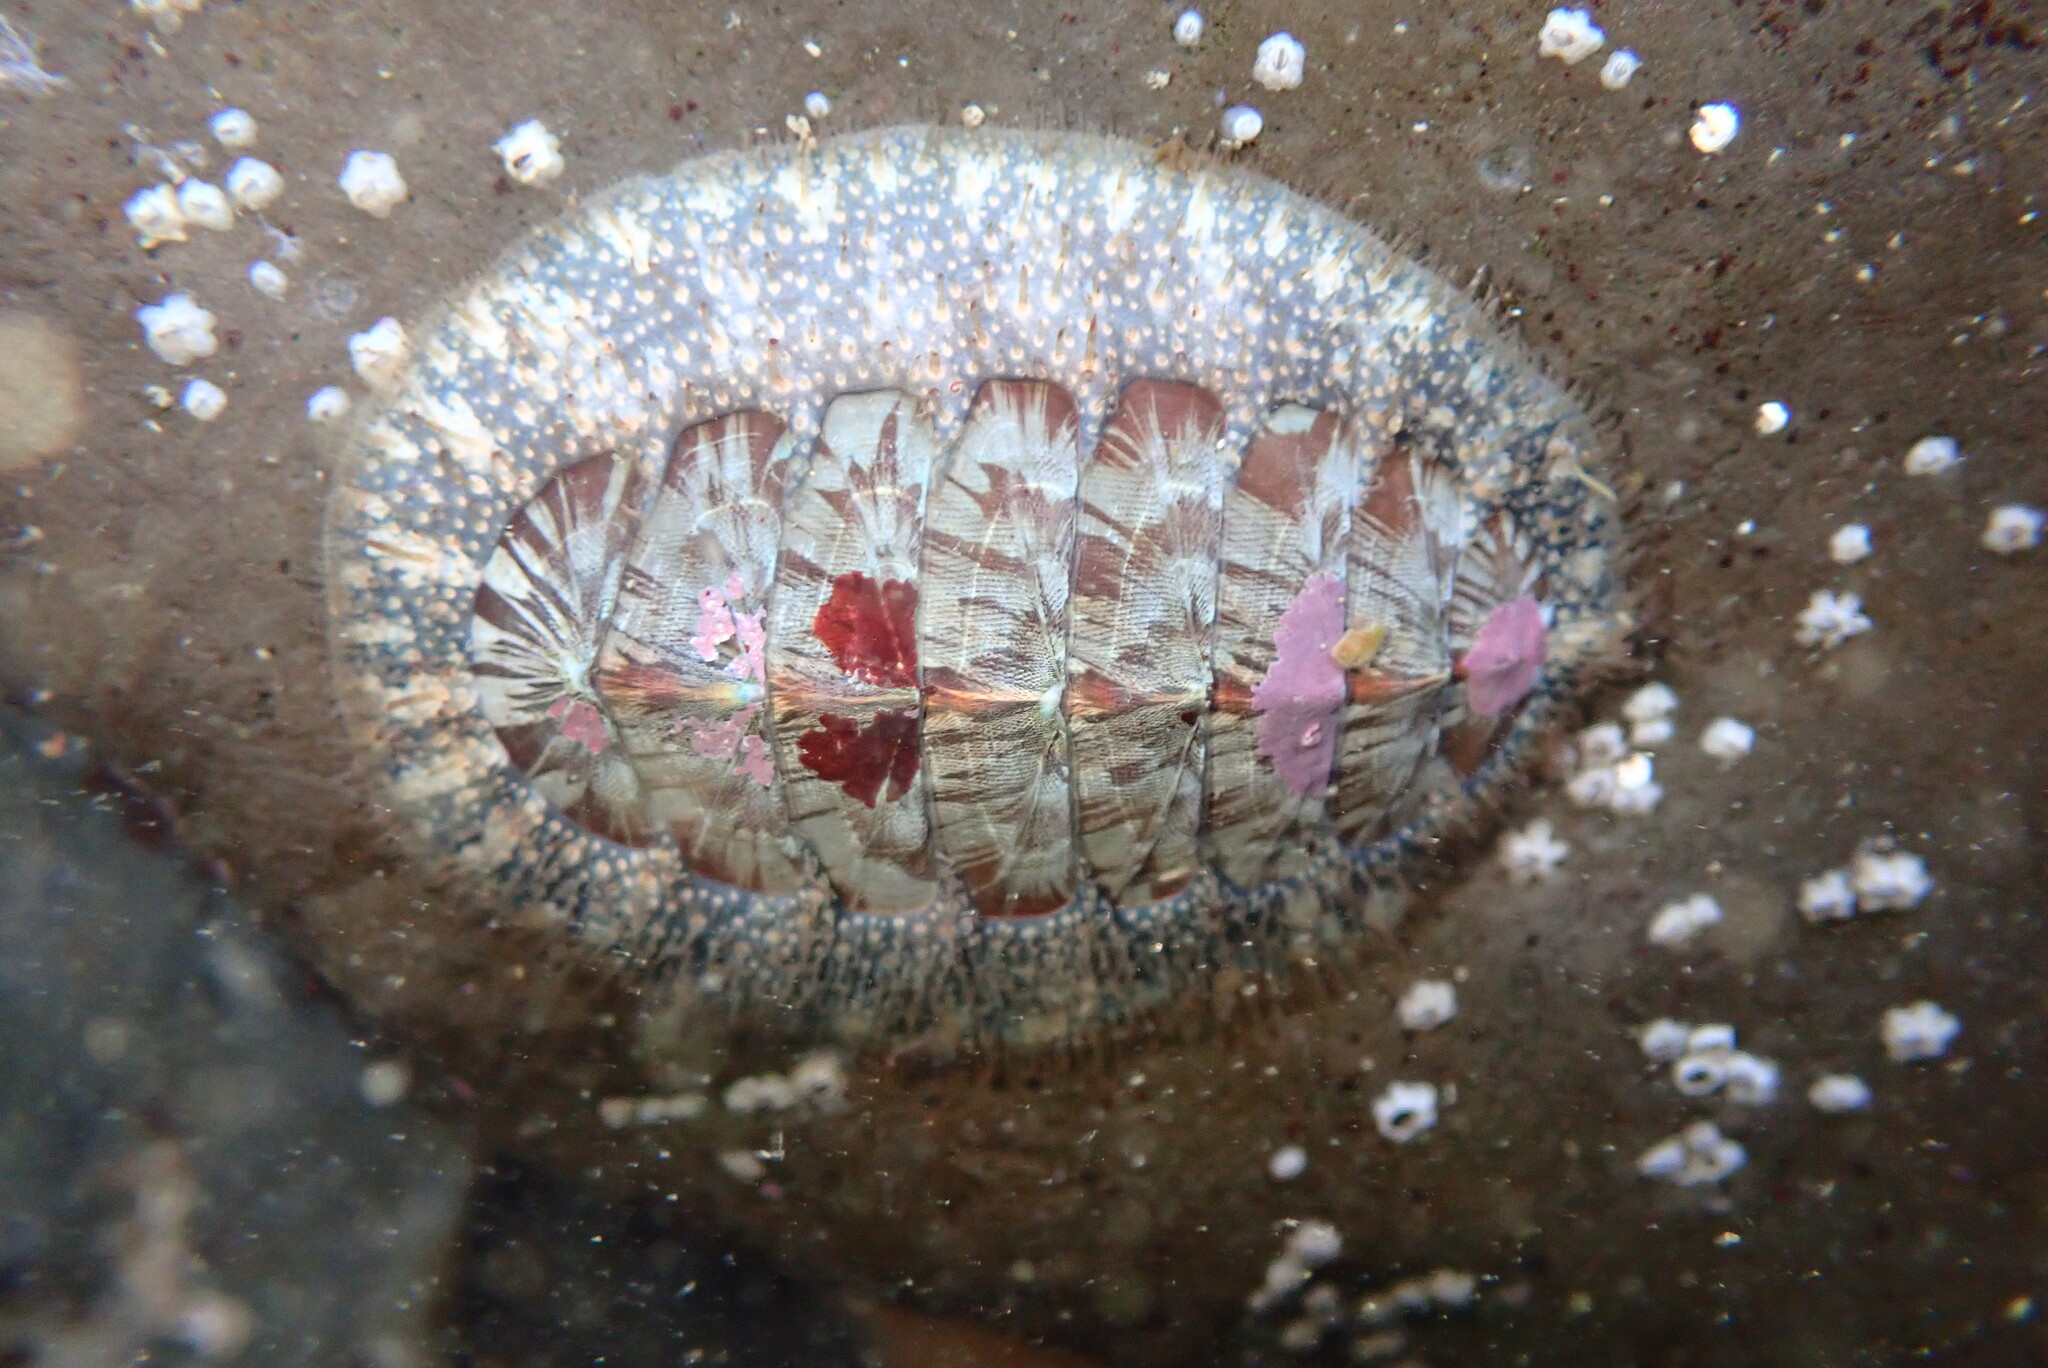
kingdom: Animalia
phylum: Mollusca
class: Polyplacophora
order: Chitonida
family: Mopaliidae
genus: Mopalia
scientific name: Mopalia lignosa
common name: Woody chiton
